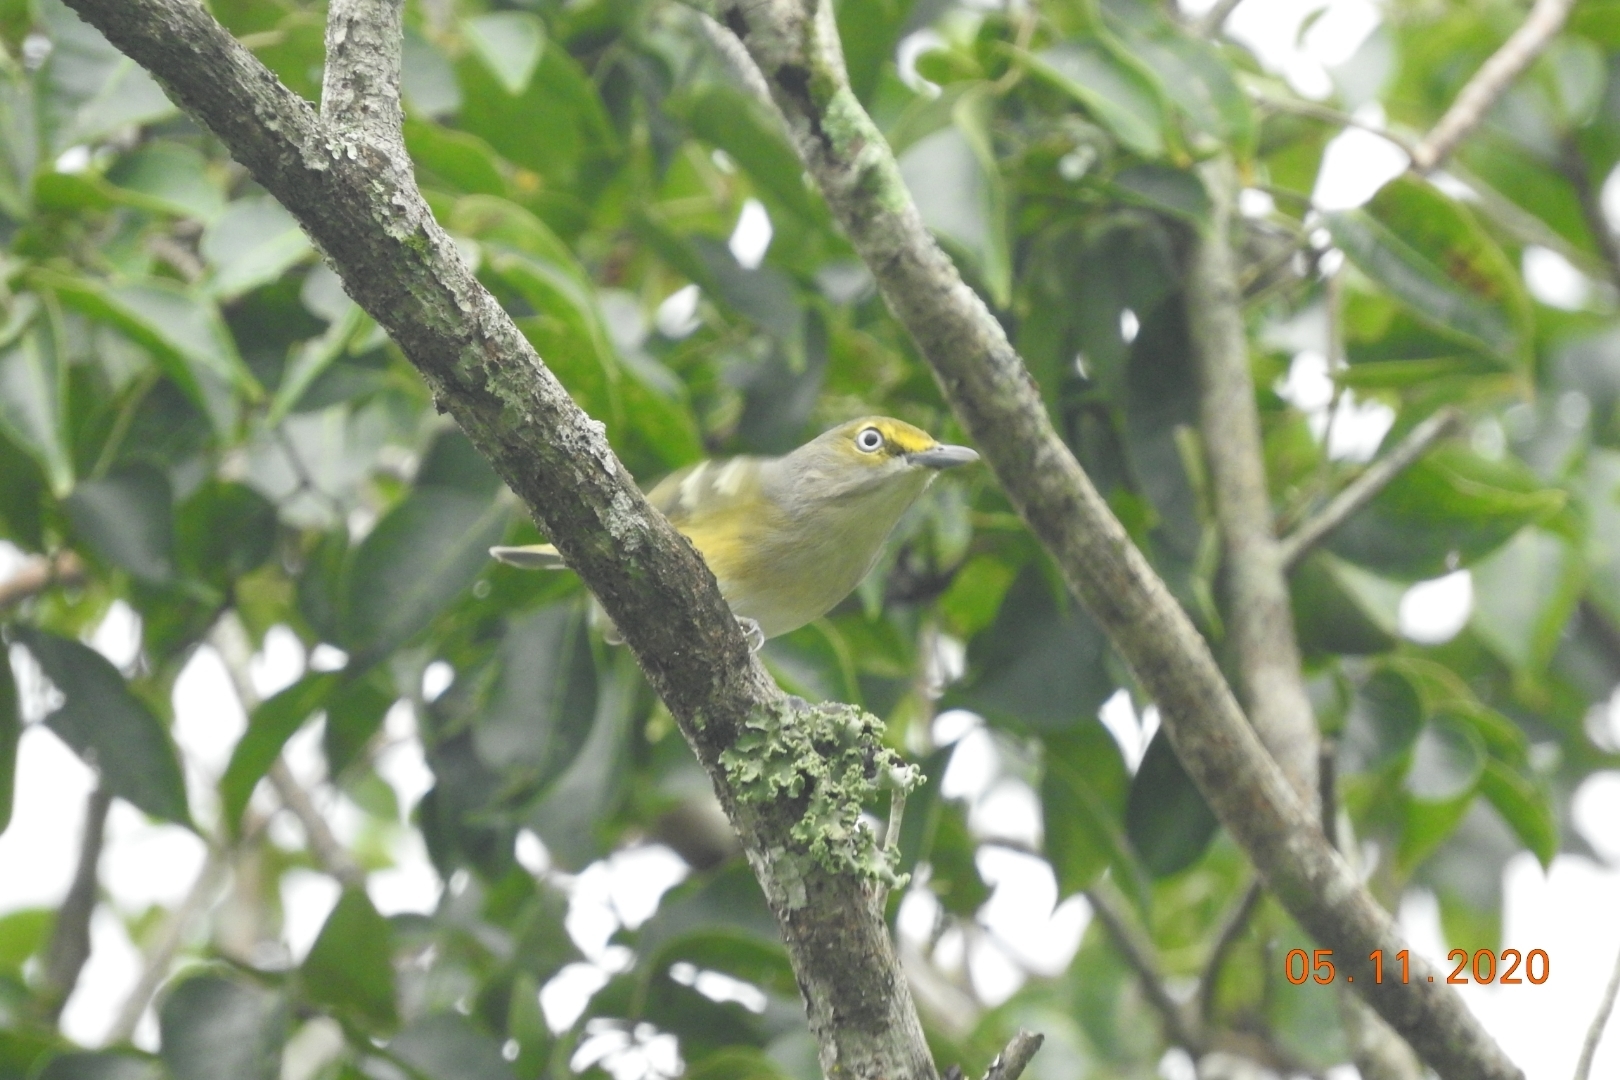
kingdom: Animalia
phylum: Chordata
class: Aves
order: Passeriformes
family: Vireonidae
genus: Vireo
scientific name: Vireo griseus
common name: White-eyed vireo
